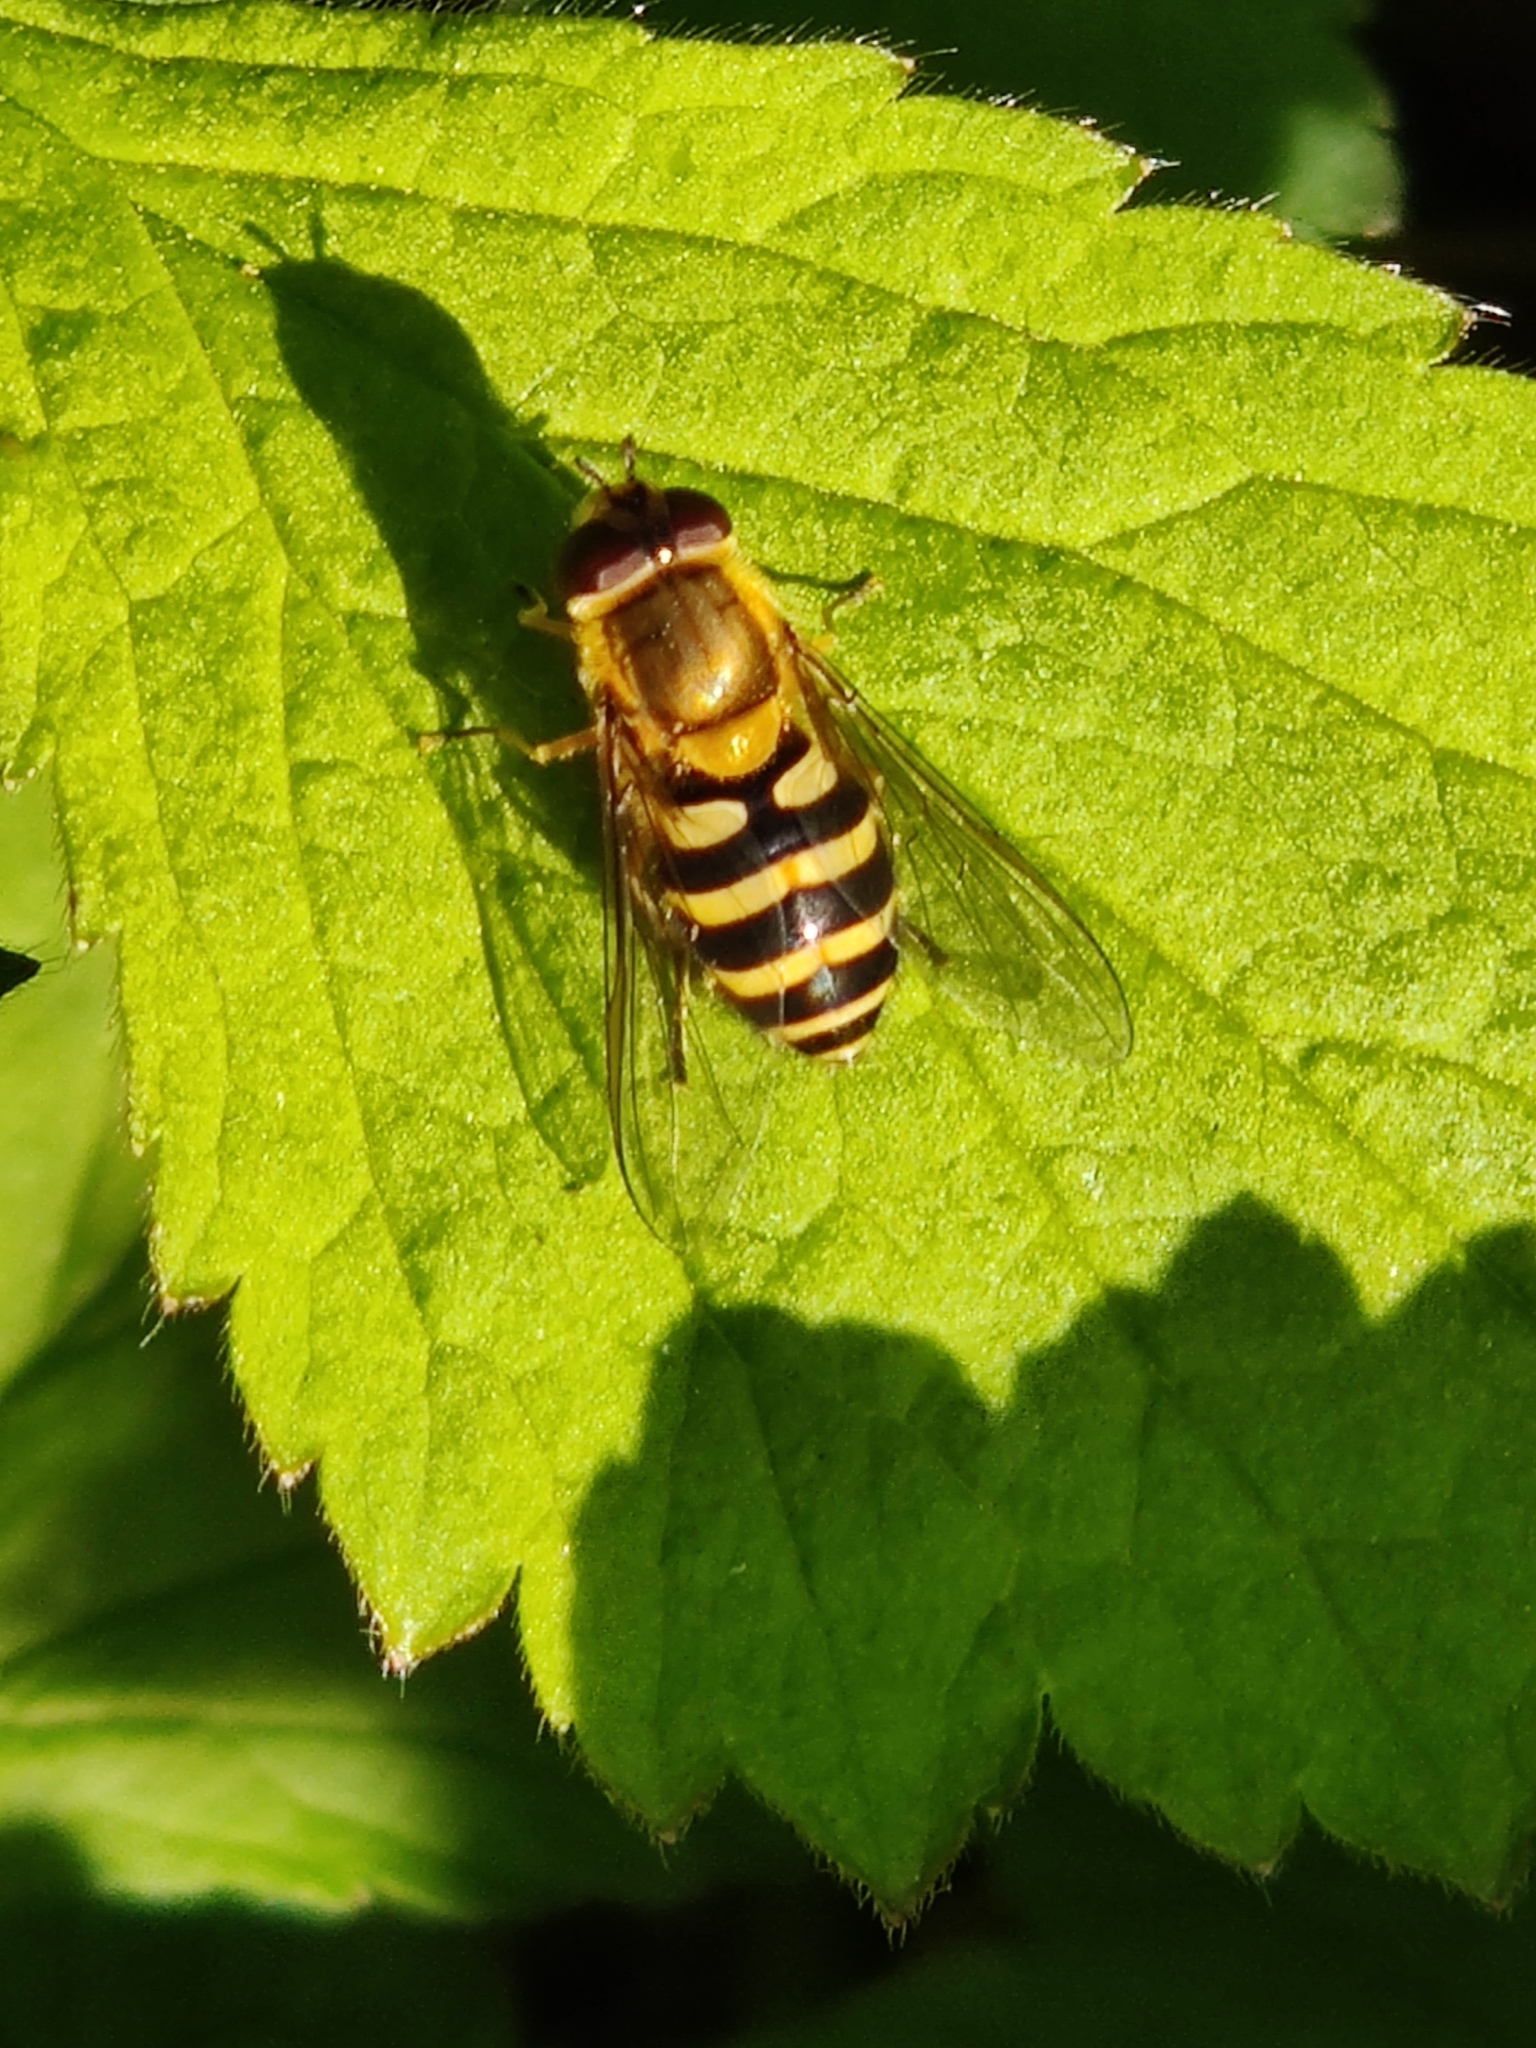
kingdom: Animalia
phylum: Arthropoda
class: Insecta
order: Diptera
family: Syrphidae
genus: Syrphus
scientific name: Syrphus
